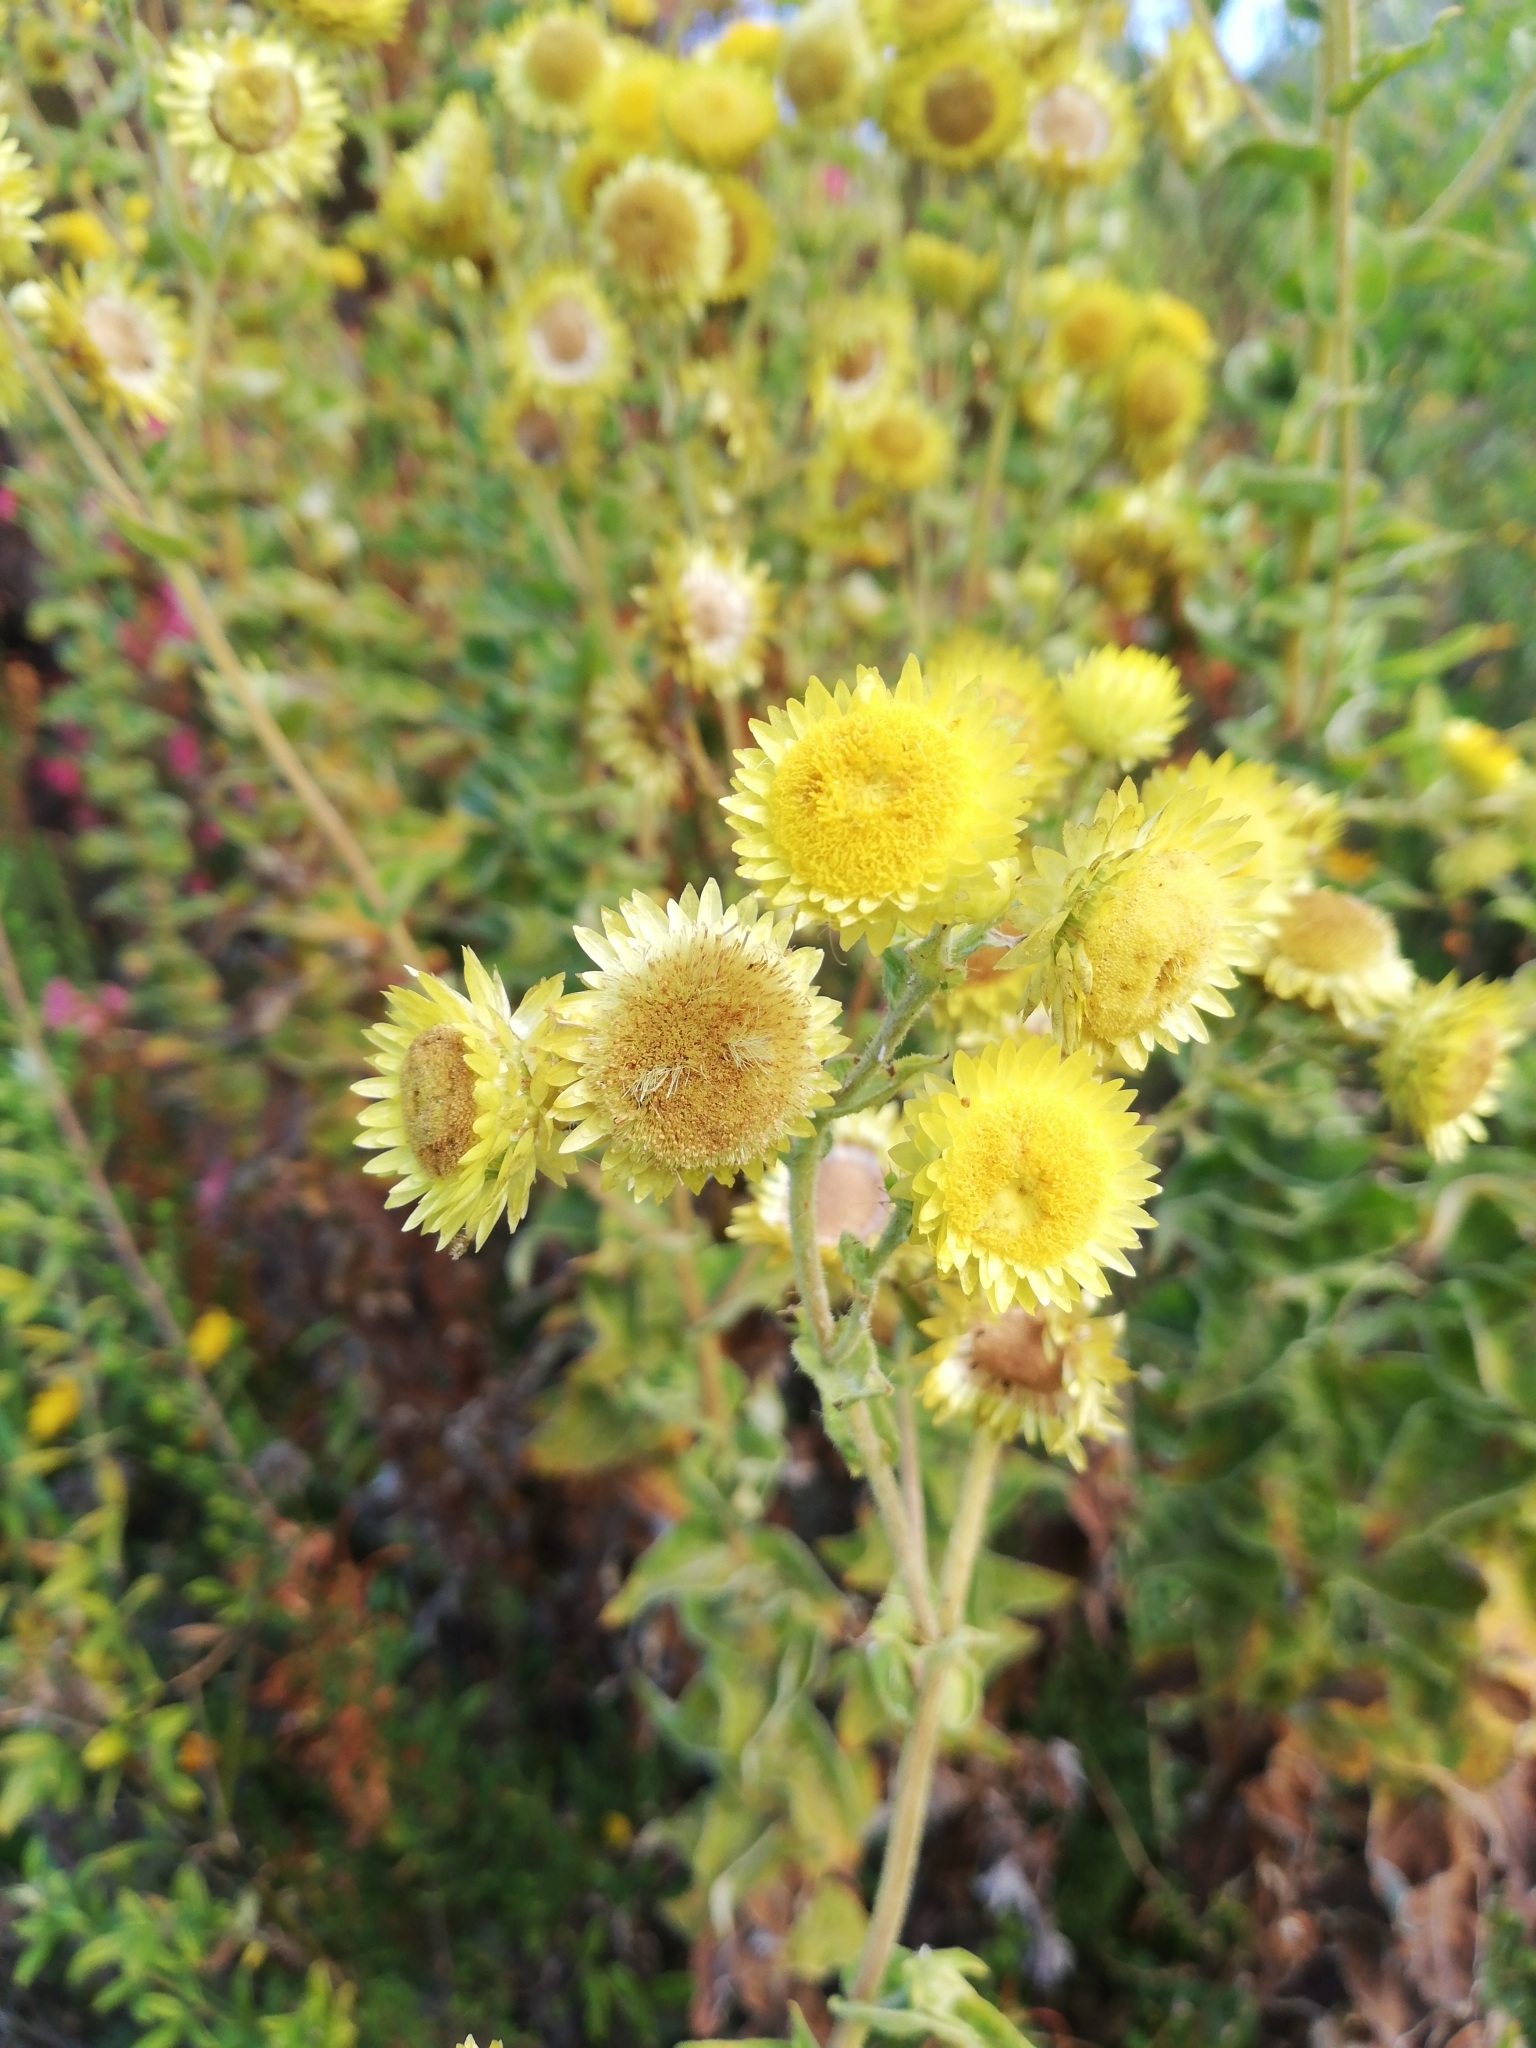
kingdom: Plantae
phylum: Tracheophyta
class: Magnoliopsida
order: Asterales
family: Asteraceae
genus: Helichrysum
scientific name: Helichrysum foetidum
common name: Stinking everlasting
